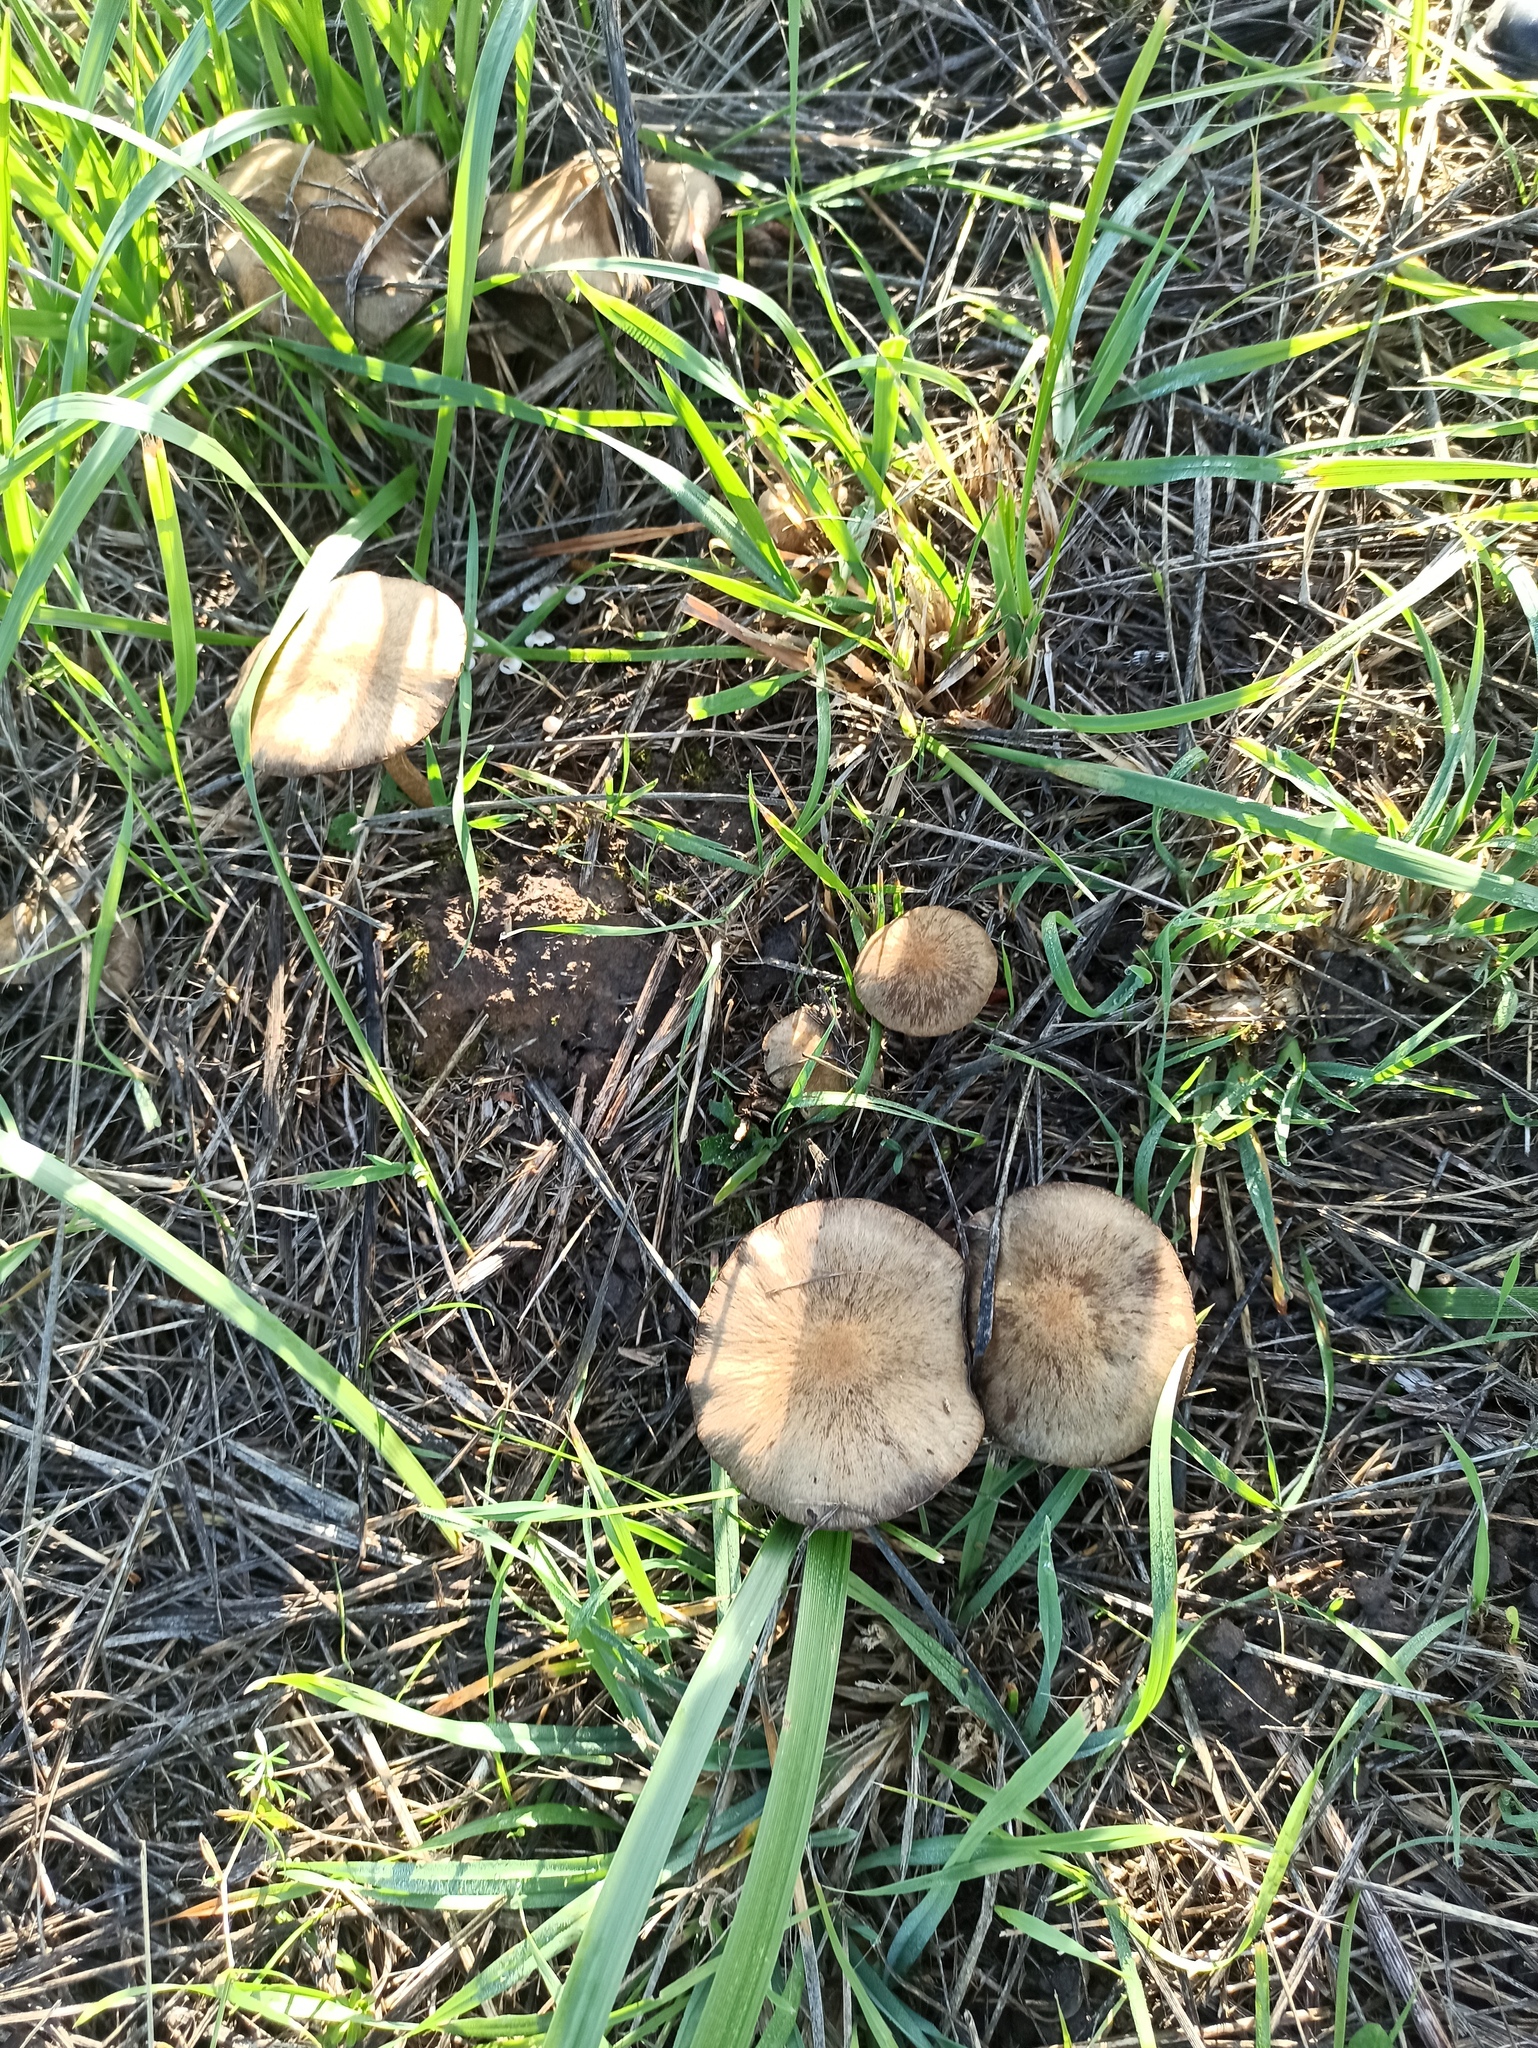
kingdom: Fungi
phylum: Basidiomycota
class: Agaricomycetes
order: Agaricales
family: Psathyrellaceae
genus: Lacrymaria
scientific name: Lacrymaria lacrymabunda
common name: Weeping widow
